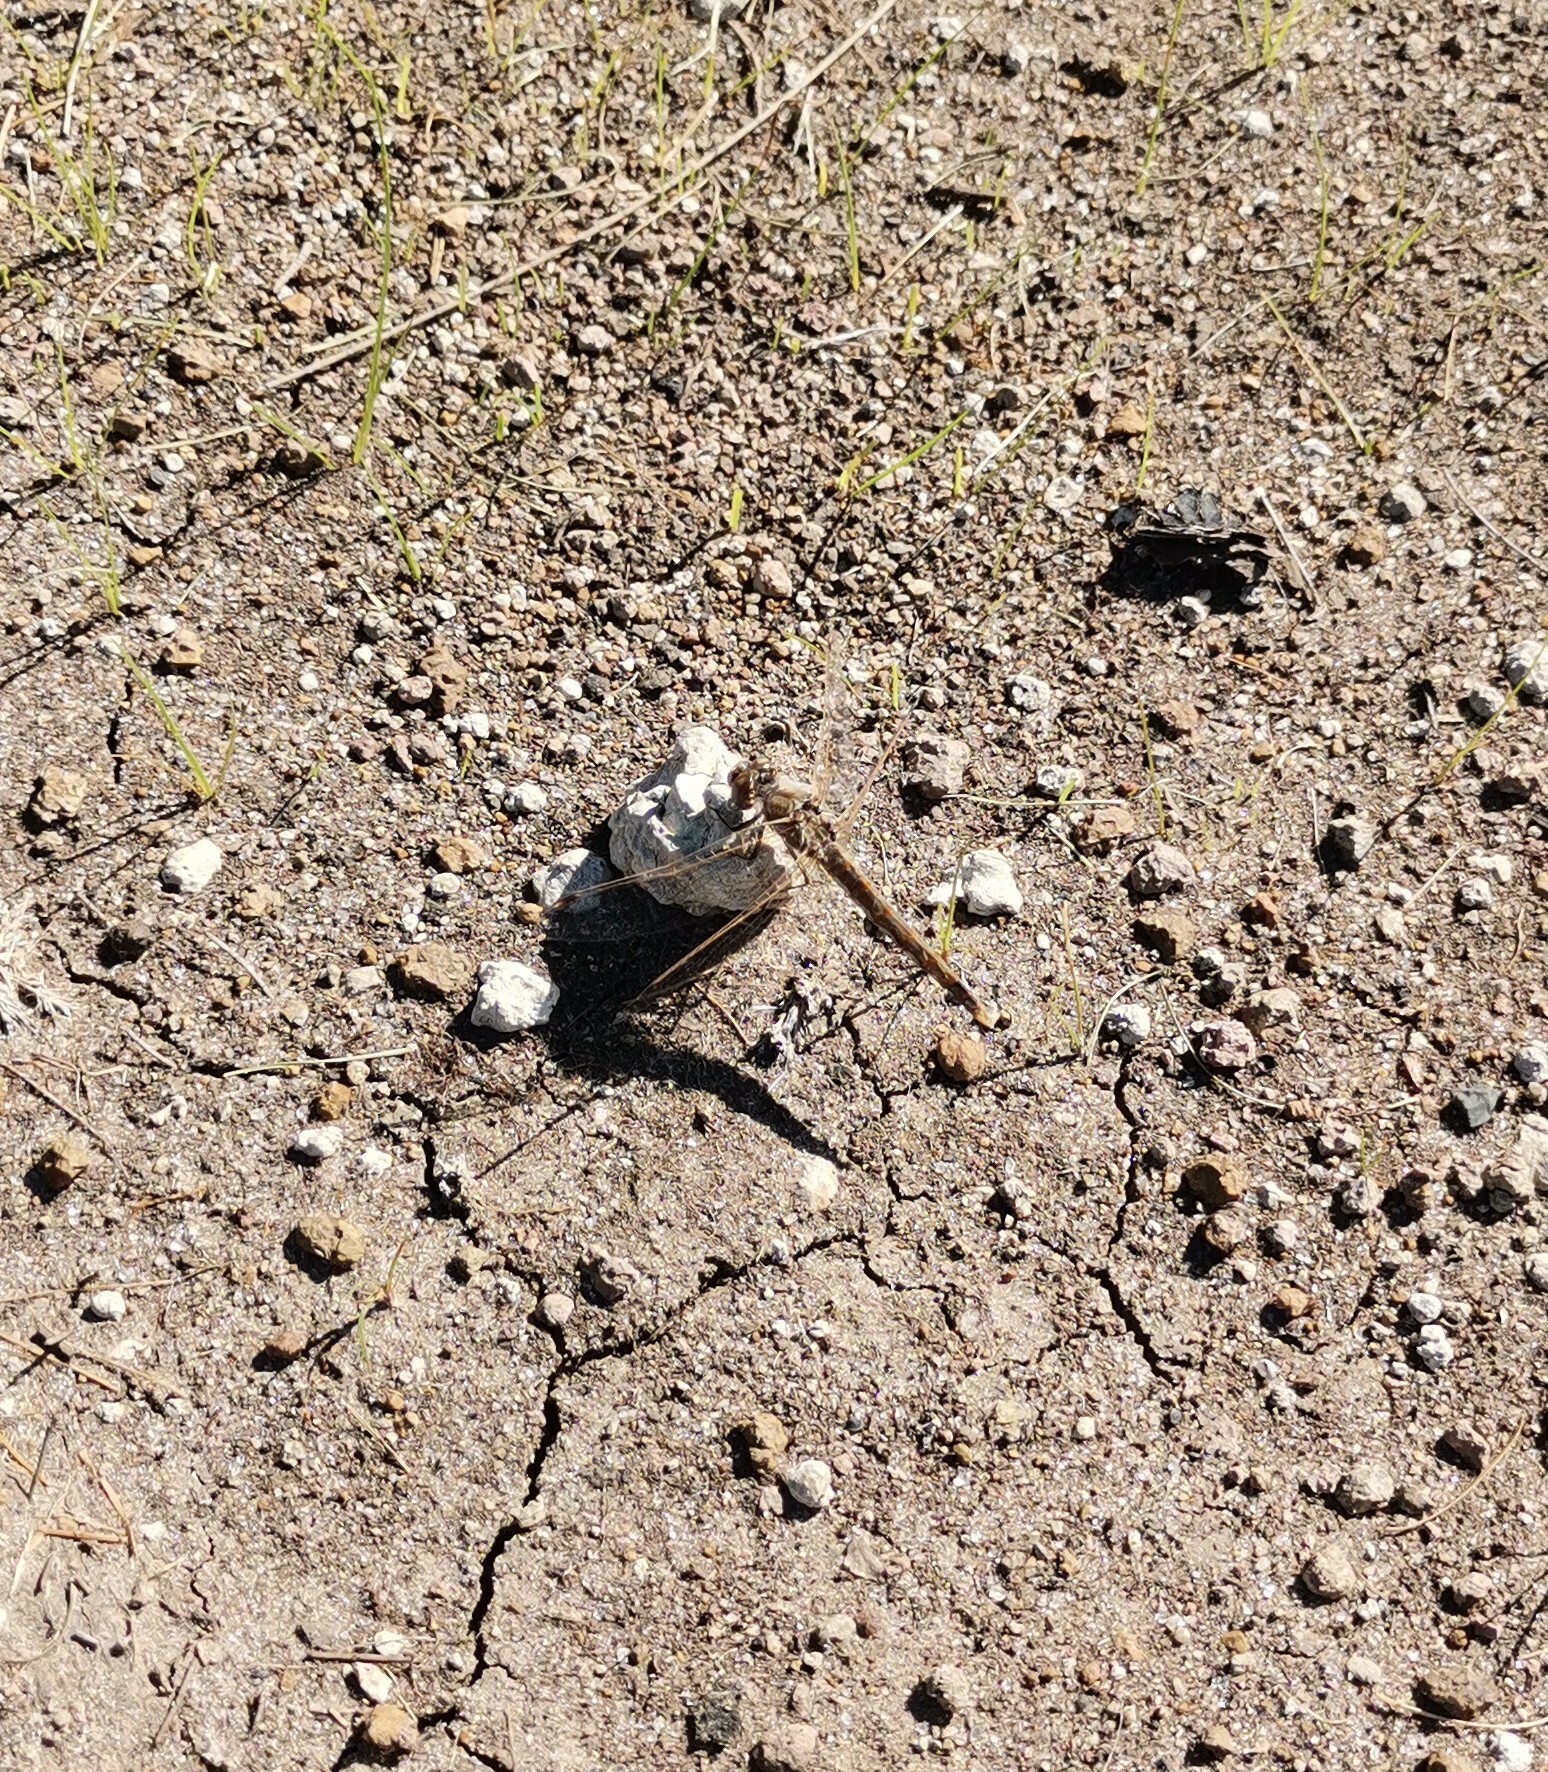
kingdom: Animalia
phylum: Arthropoda
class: Insecta
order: Odonata
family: Libellulidae
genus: Sympetrum
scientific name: Sympetrum corruptum
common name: Variegated meadowhawk
